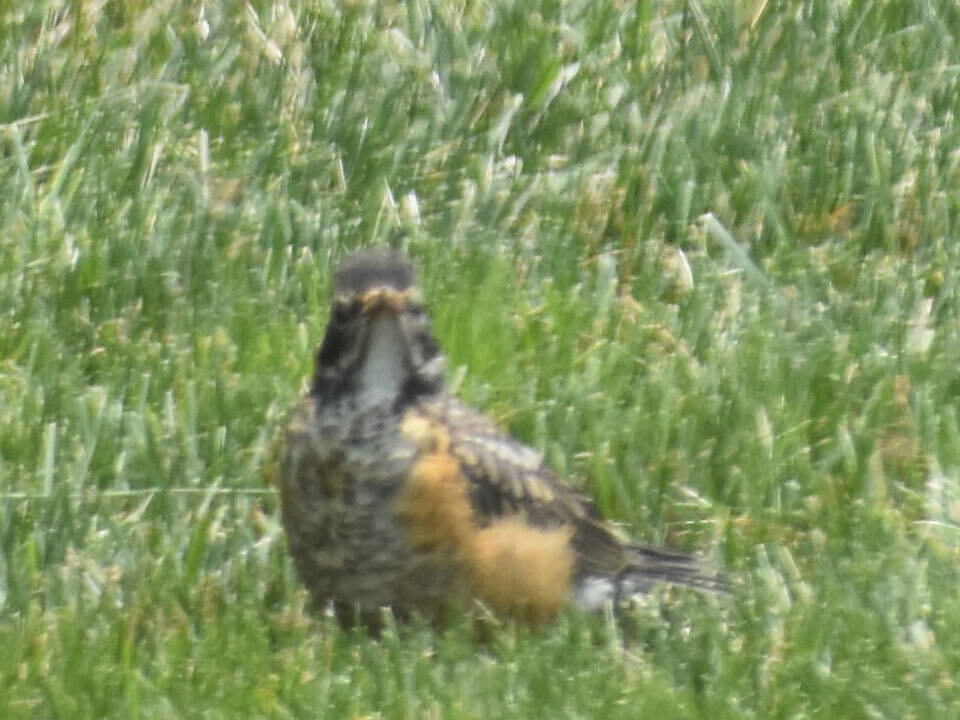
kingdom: Animalia
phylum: Chordata
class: Aves
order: Passeriformes
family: Turdidae
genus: Turdus
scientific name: Turdus migratorius
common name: American robin
